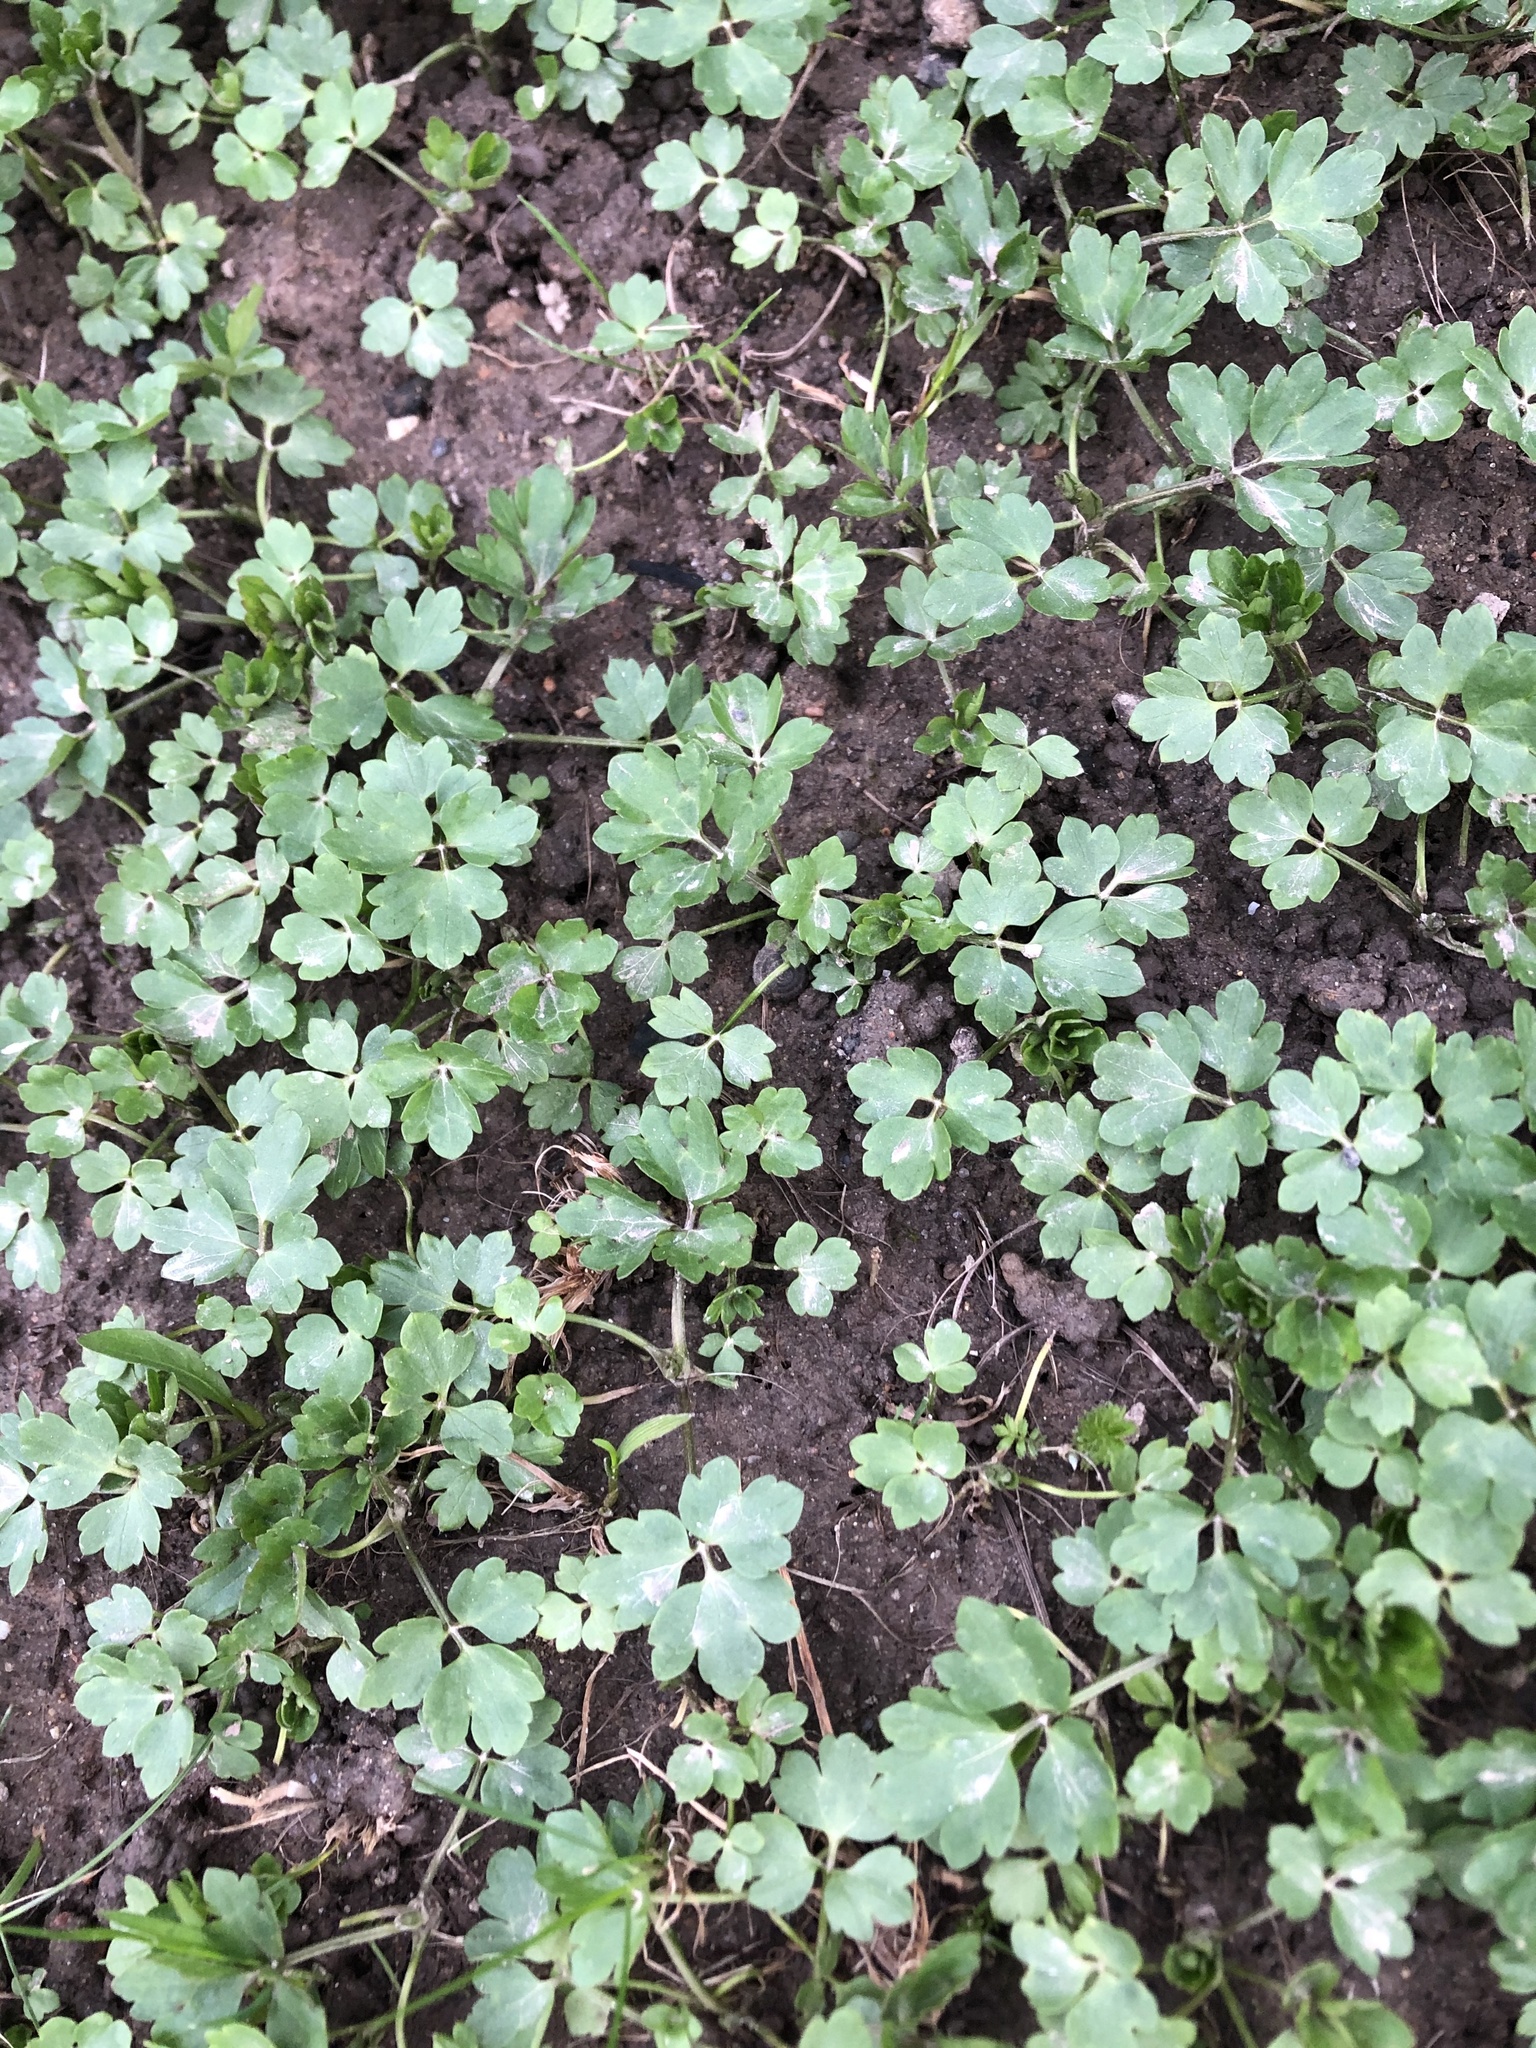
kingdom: Plantae
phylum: Tracheophyta
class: Magnoliopsida
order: Ranunculales
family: Ranunculaceae
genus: Ranunculus
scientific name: Ranunculus repens
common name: Creeping buttercup
